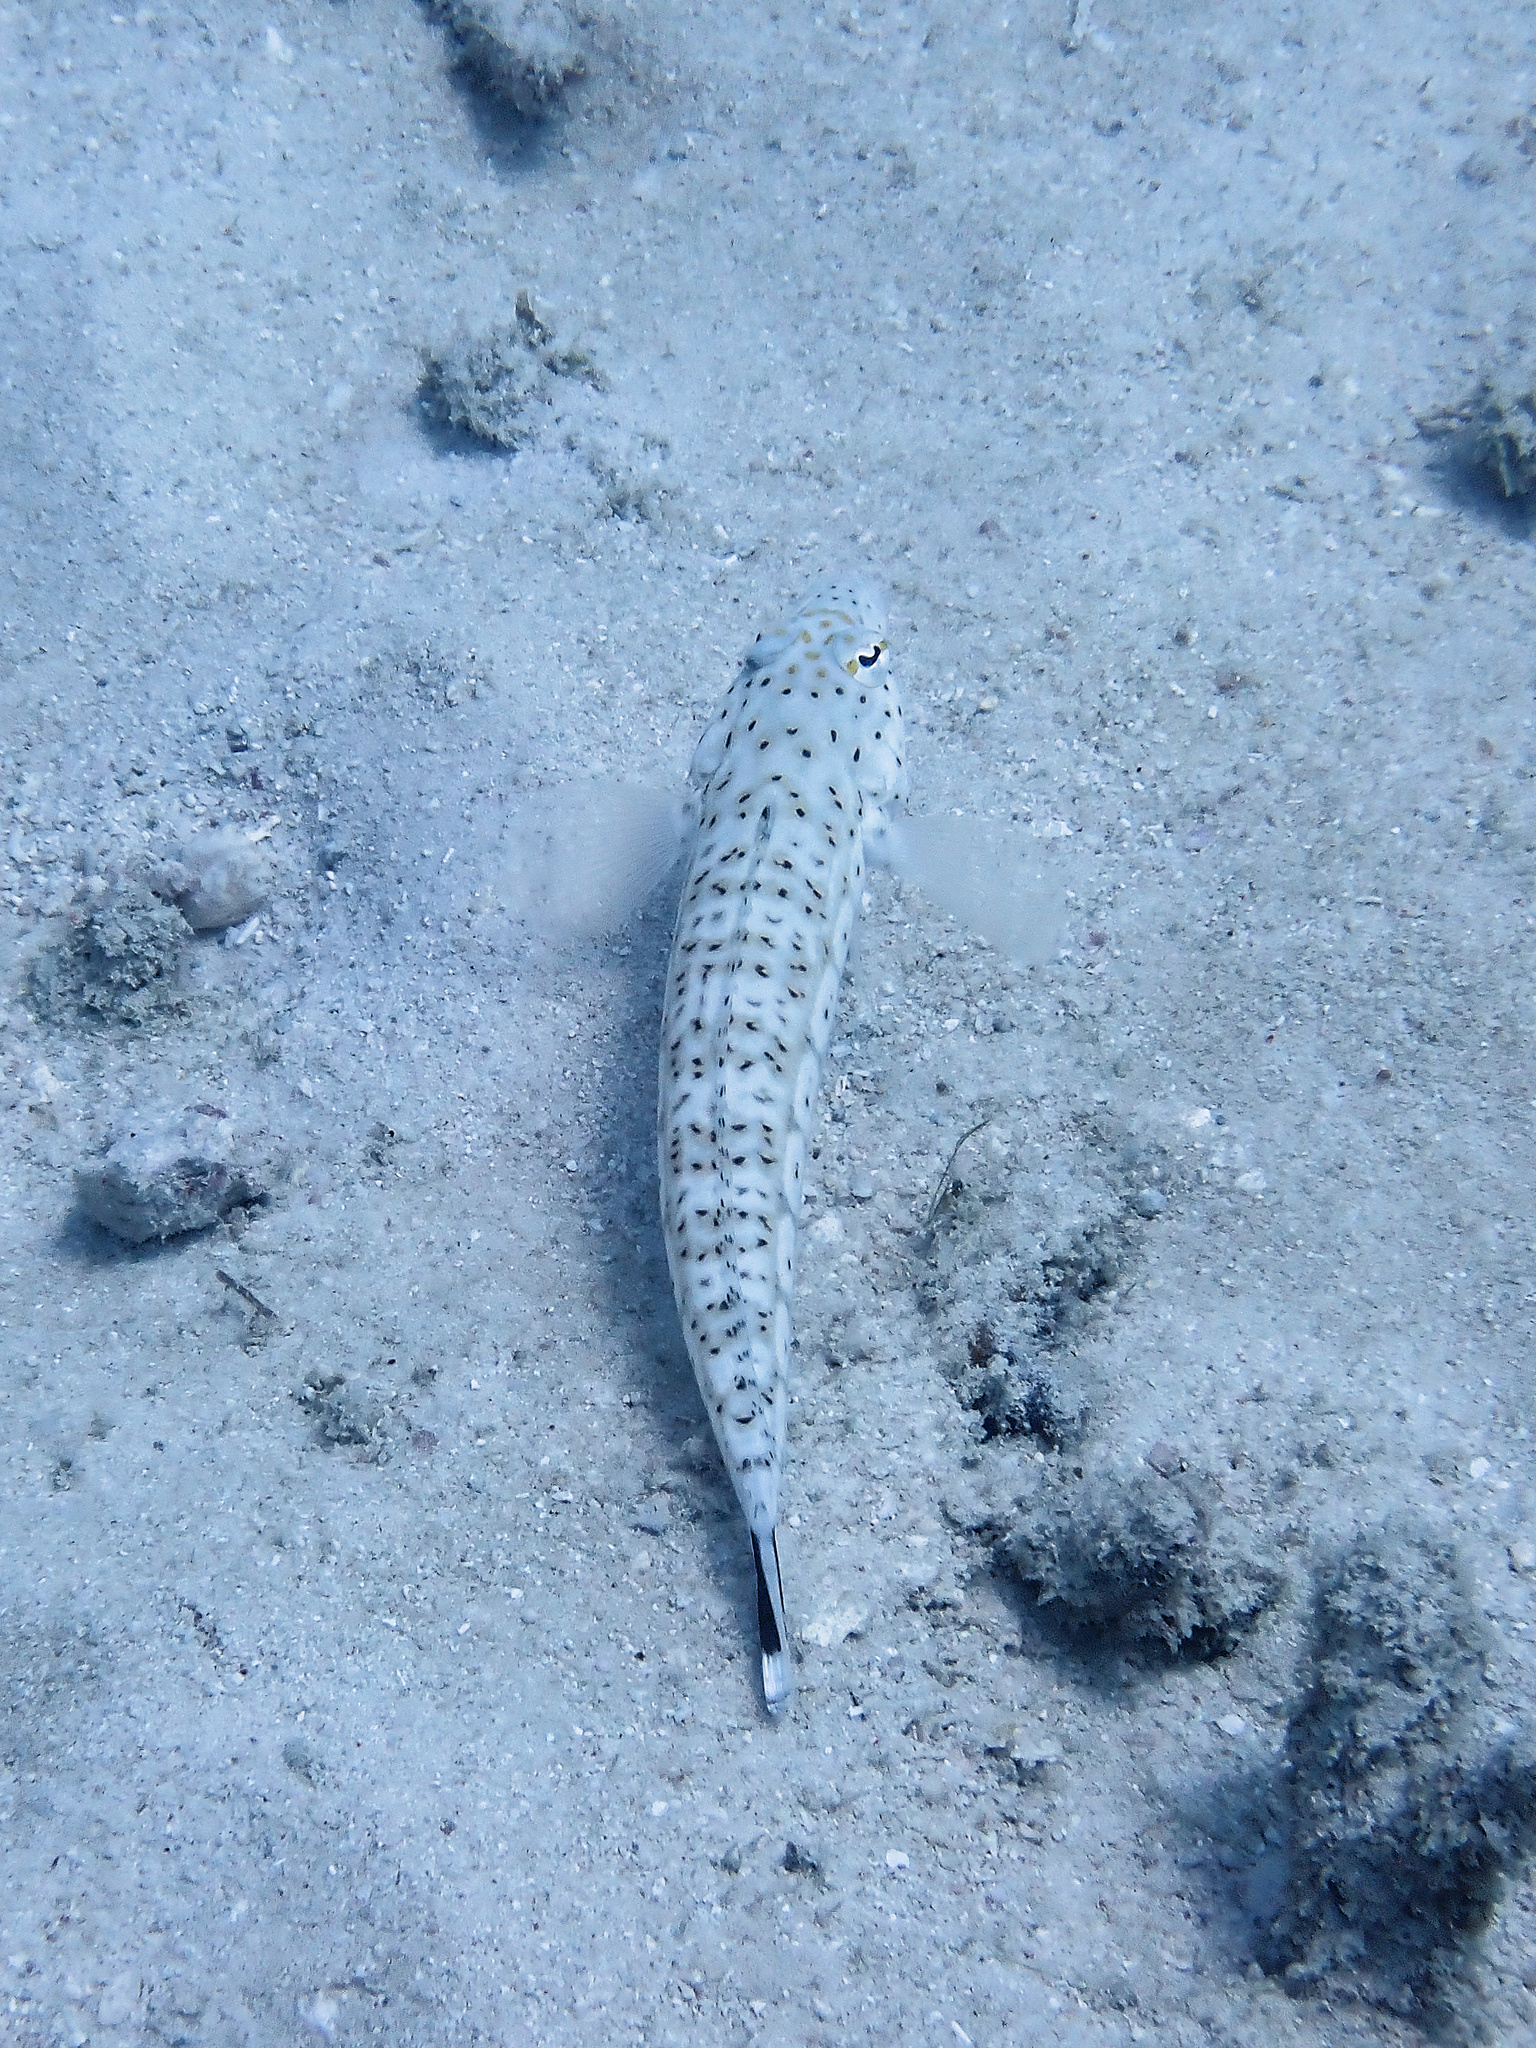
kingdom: Animalia
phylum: Chordata
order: Perciformes
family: Pinguipedidae
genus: Parapercis
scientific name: Parapercis queenslandica
